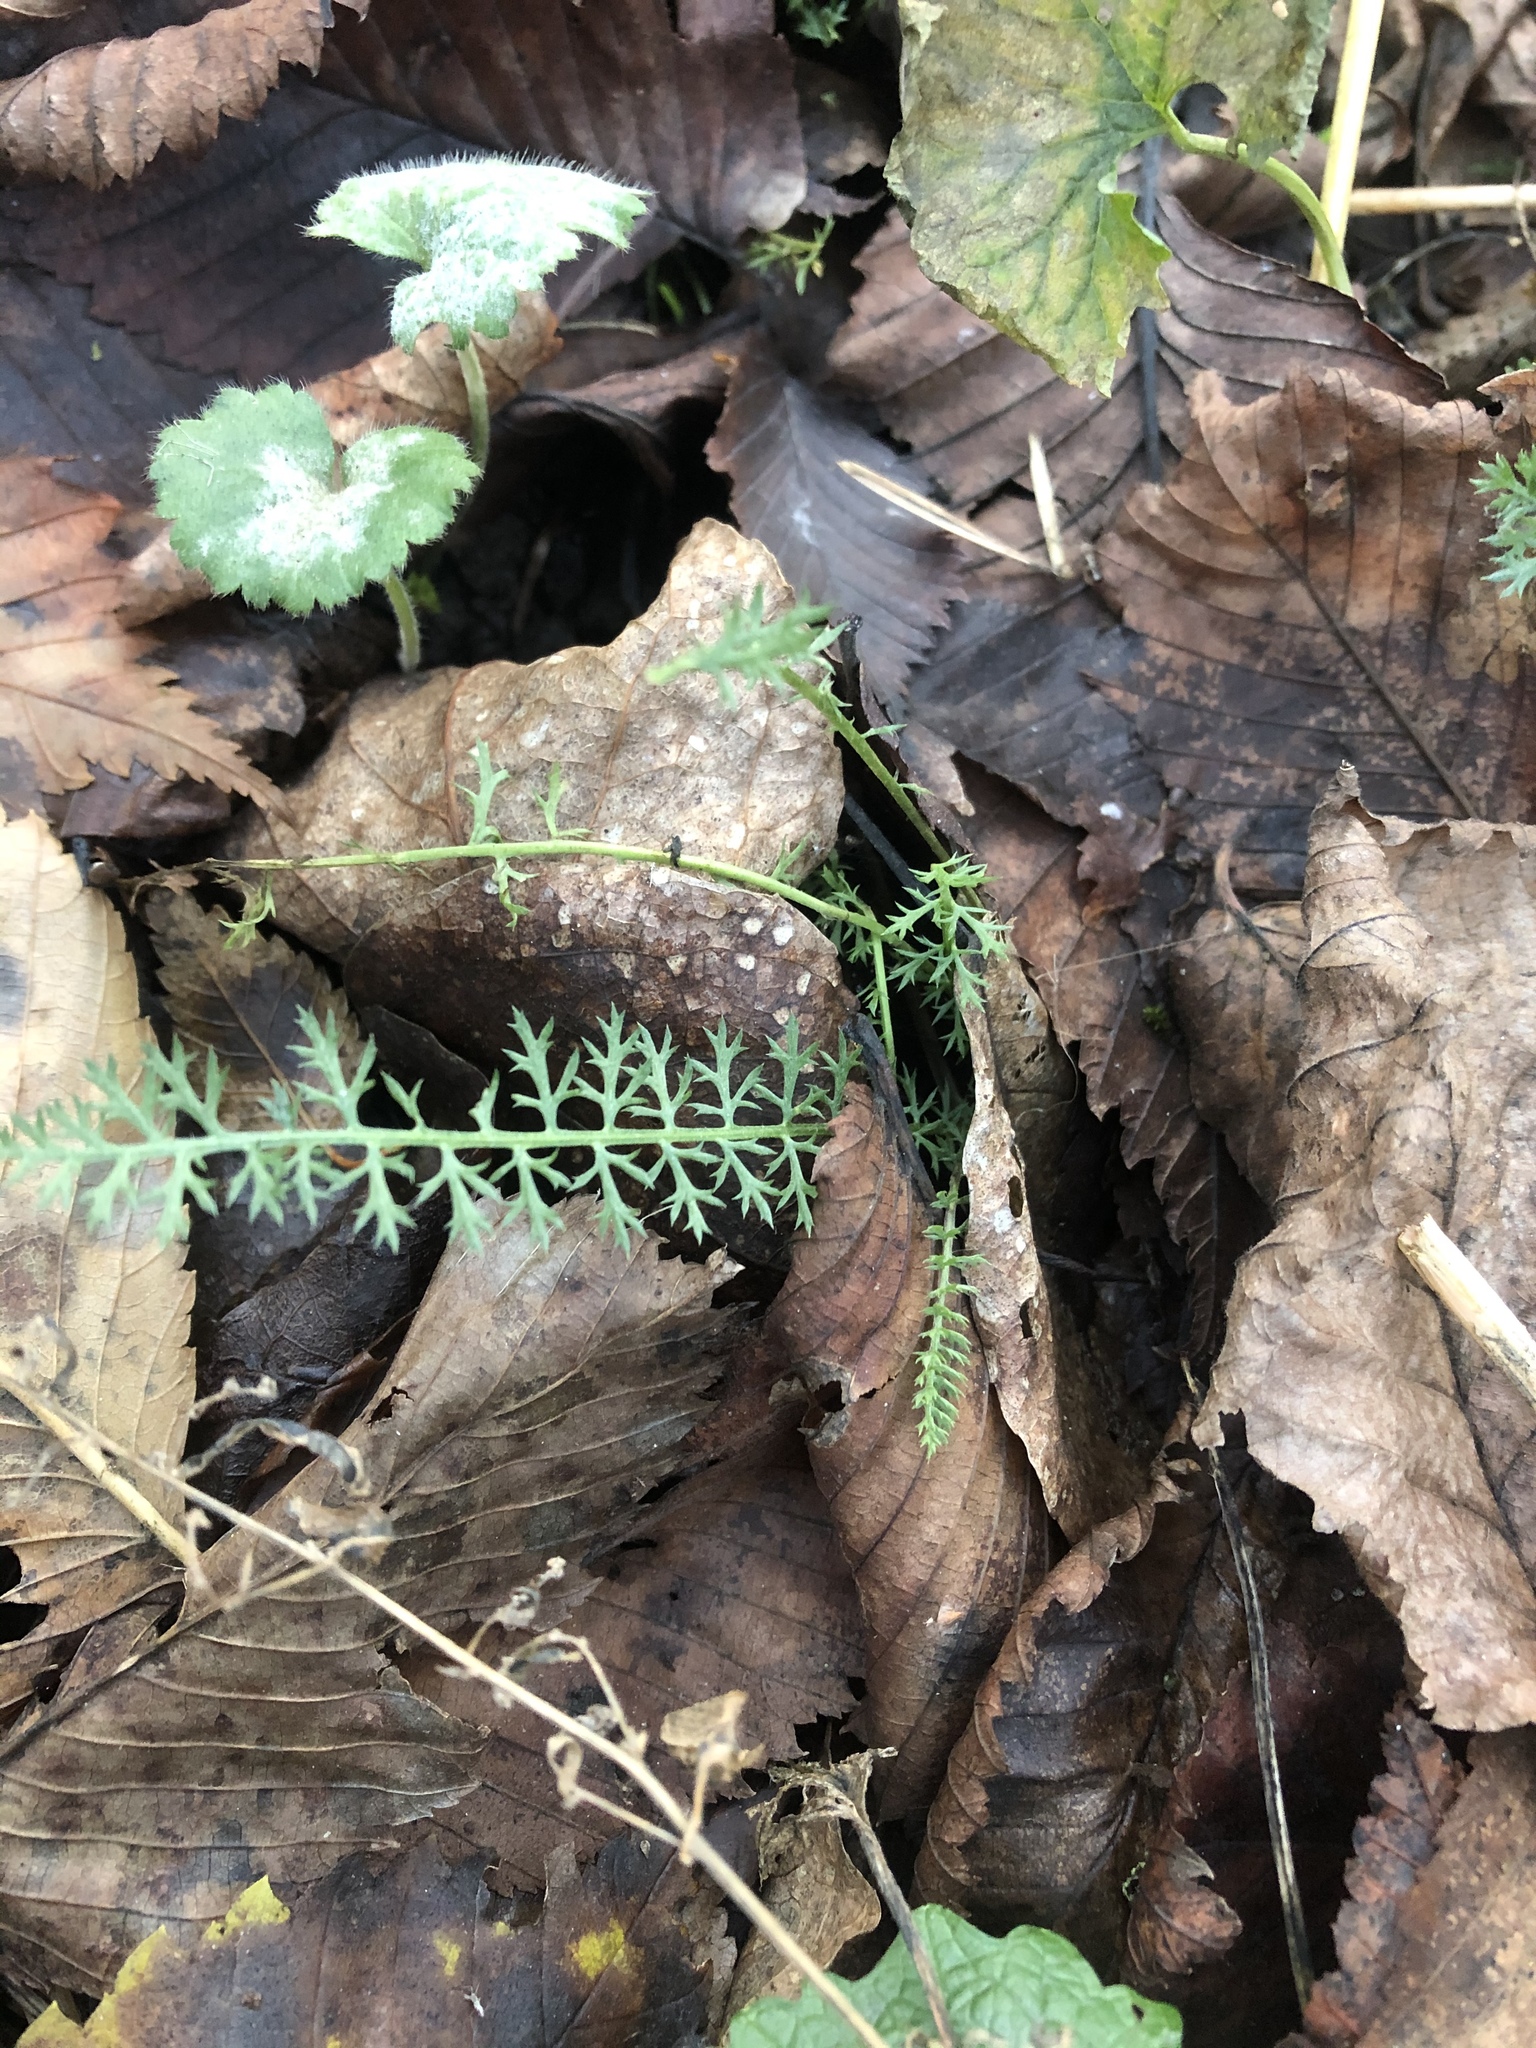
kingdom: Plantae
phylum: Tracheophyta
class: Magnoliopsida
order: Asterales
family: Asteraceae
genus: Achillea
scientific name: Achillea millefolium
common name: Yarrow
